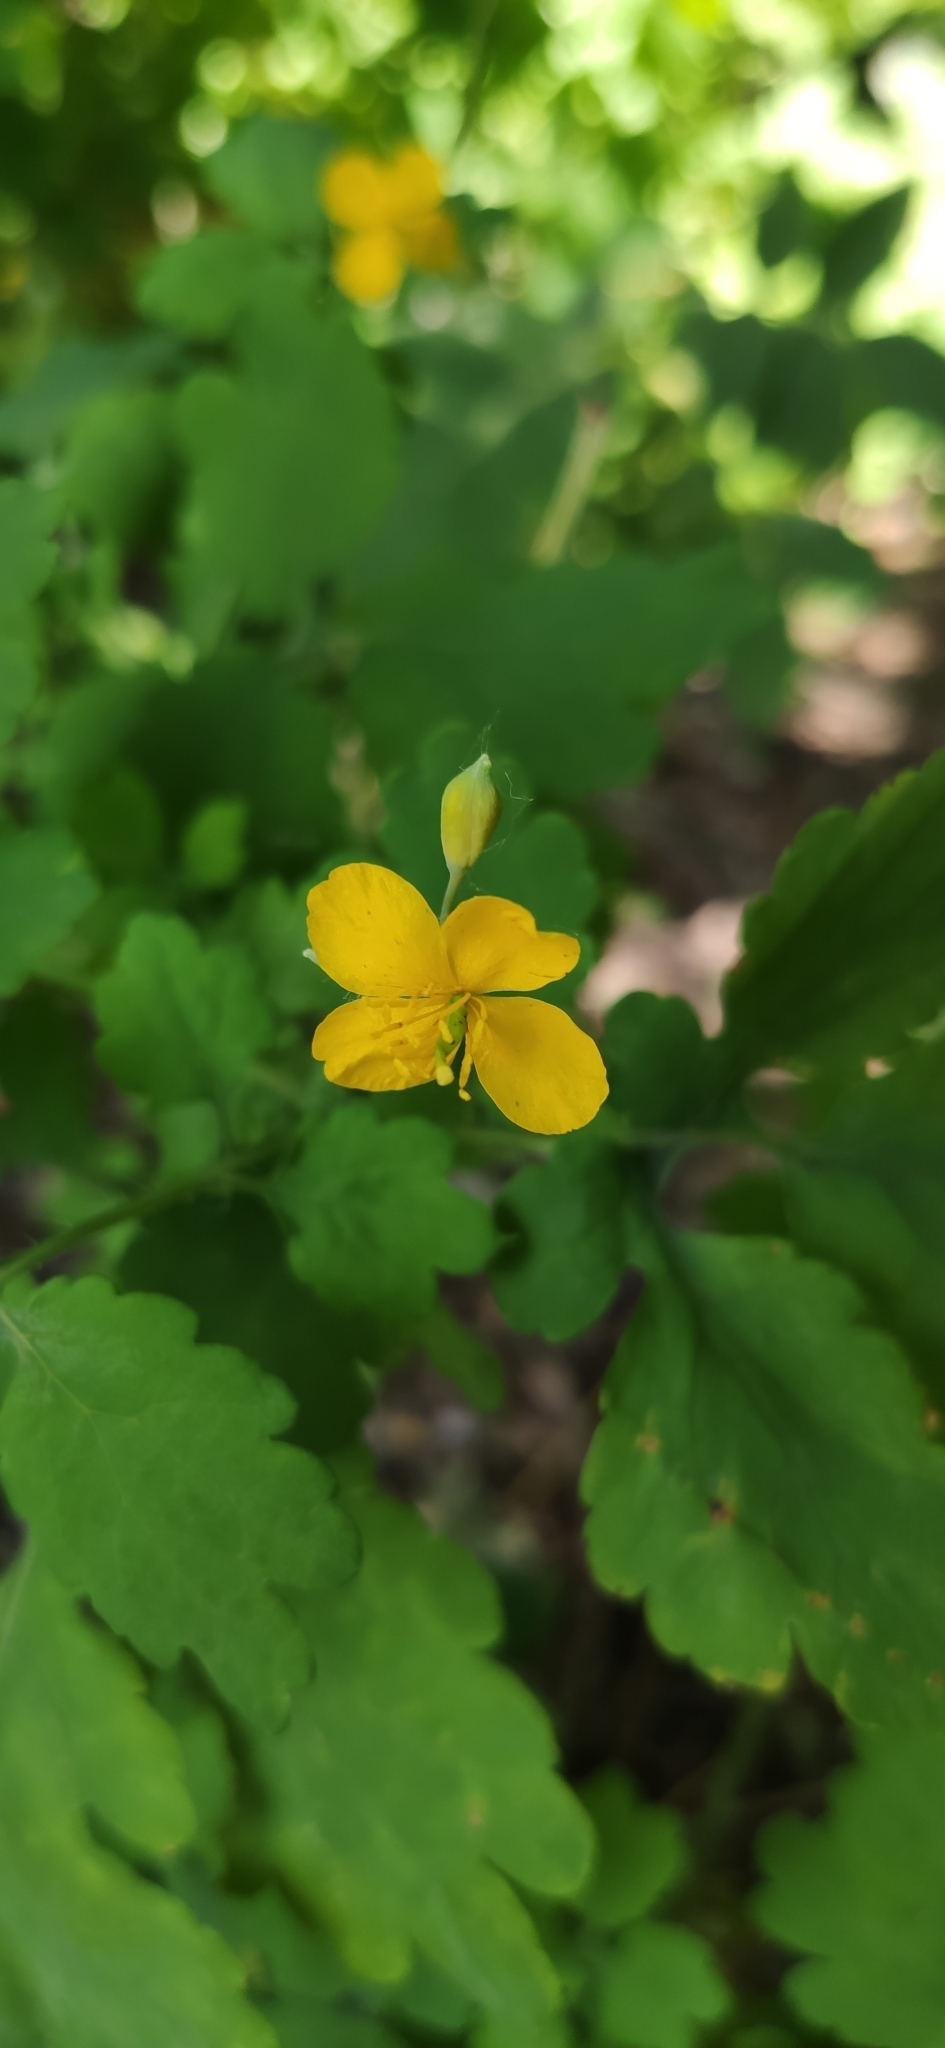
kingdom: Plantae
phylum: Tracheophyta
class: Magnoliopsida
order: Ranunculales
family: Papaveraceae
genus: Chelidonium
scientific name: Chelidonium majus
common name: Greater celandine
